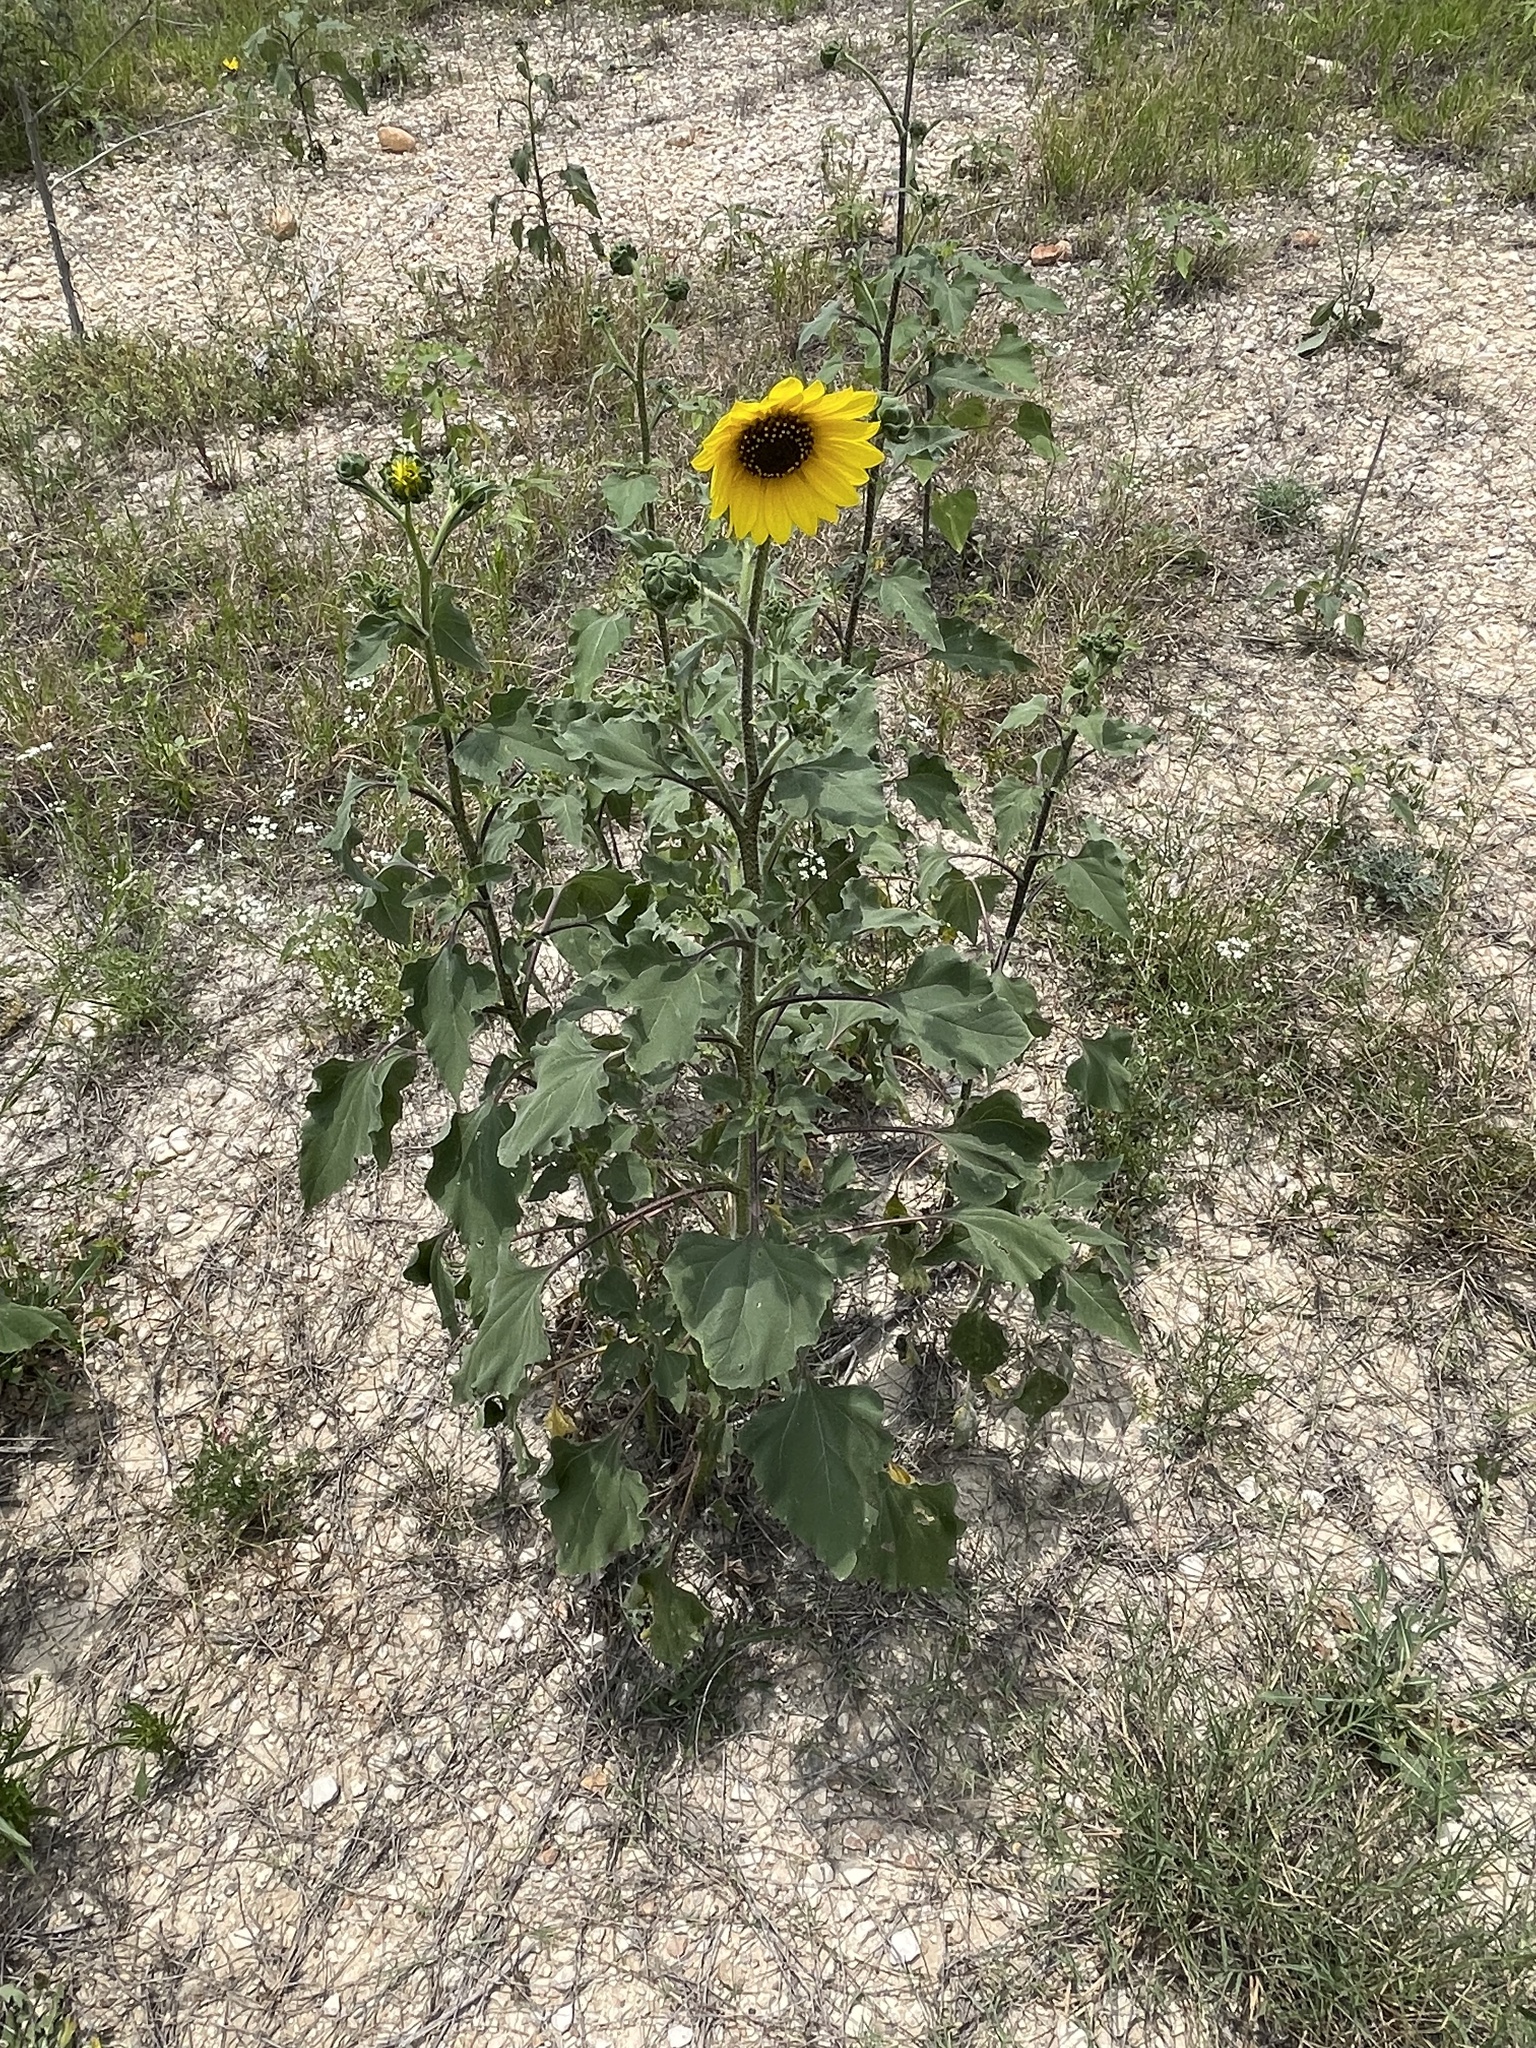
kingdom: Plantae
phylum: Tracheophyta
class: Magnoliopsida
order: Asterales
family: Asteraceae
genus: Helianthus
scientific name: Helianthus annuus
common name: Sunflower
